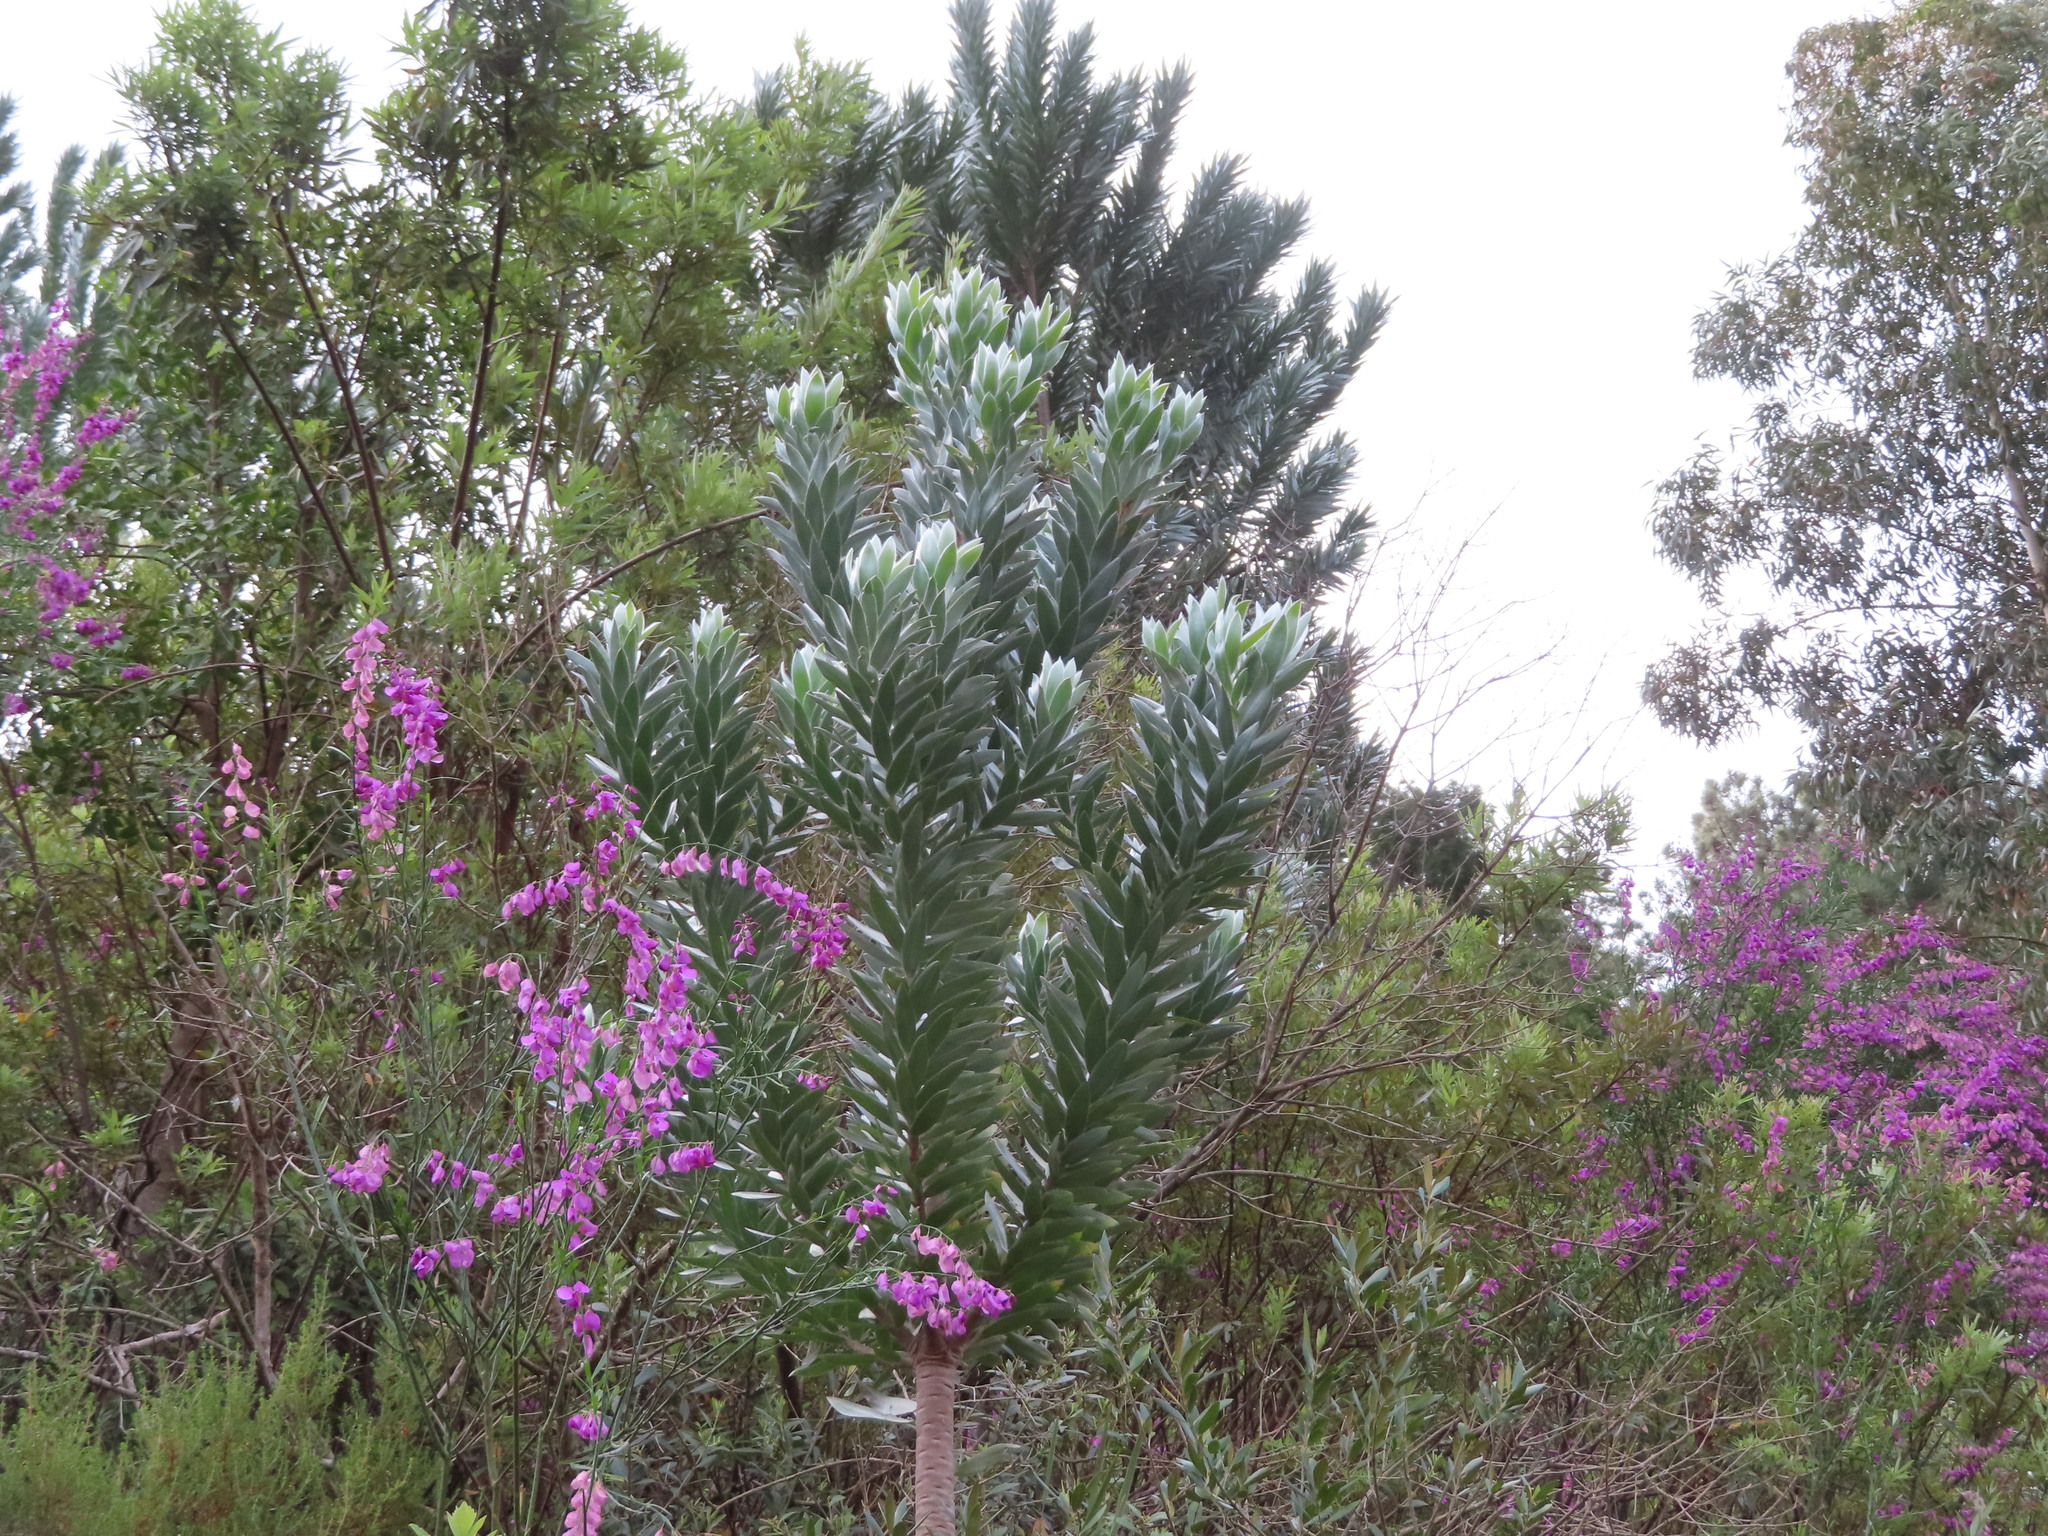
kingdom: Plantae
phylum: Tracheophyta
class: Magnoliopsida
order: Proteales
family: Proteaceae
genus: Leucadendron
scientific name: Leucadendron argenteum
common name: Cape silver tree
